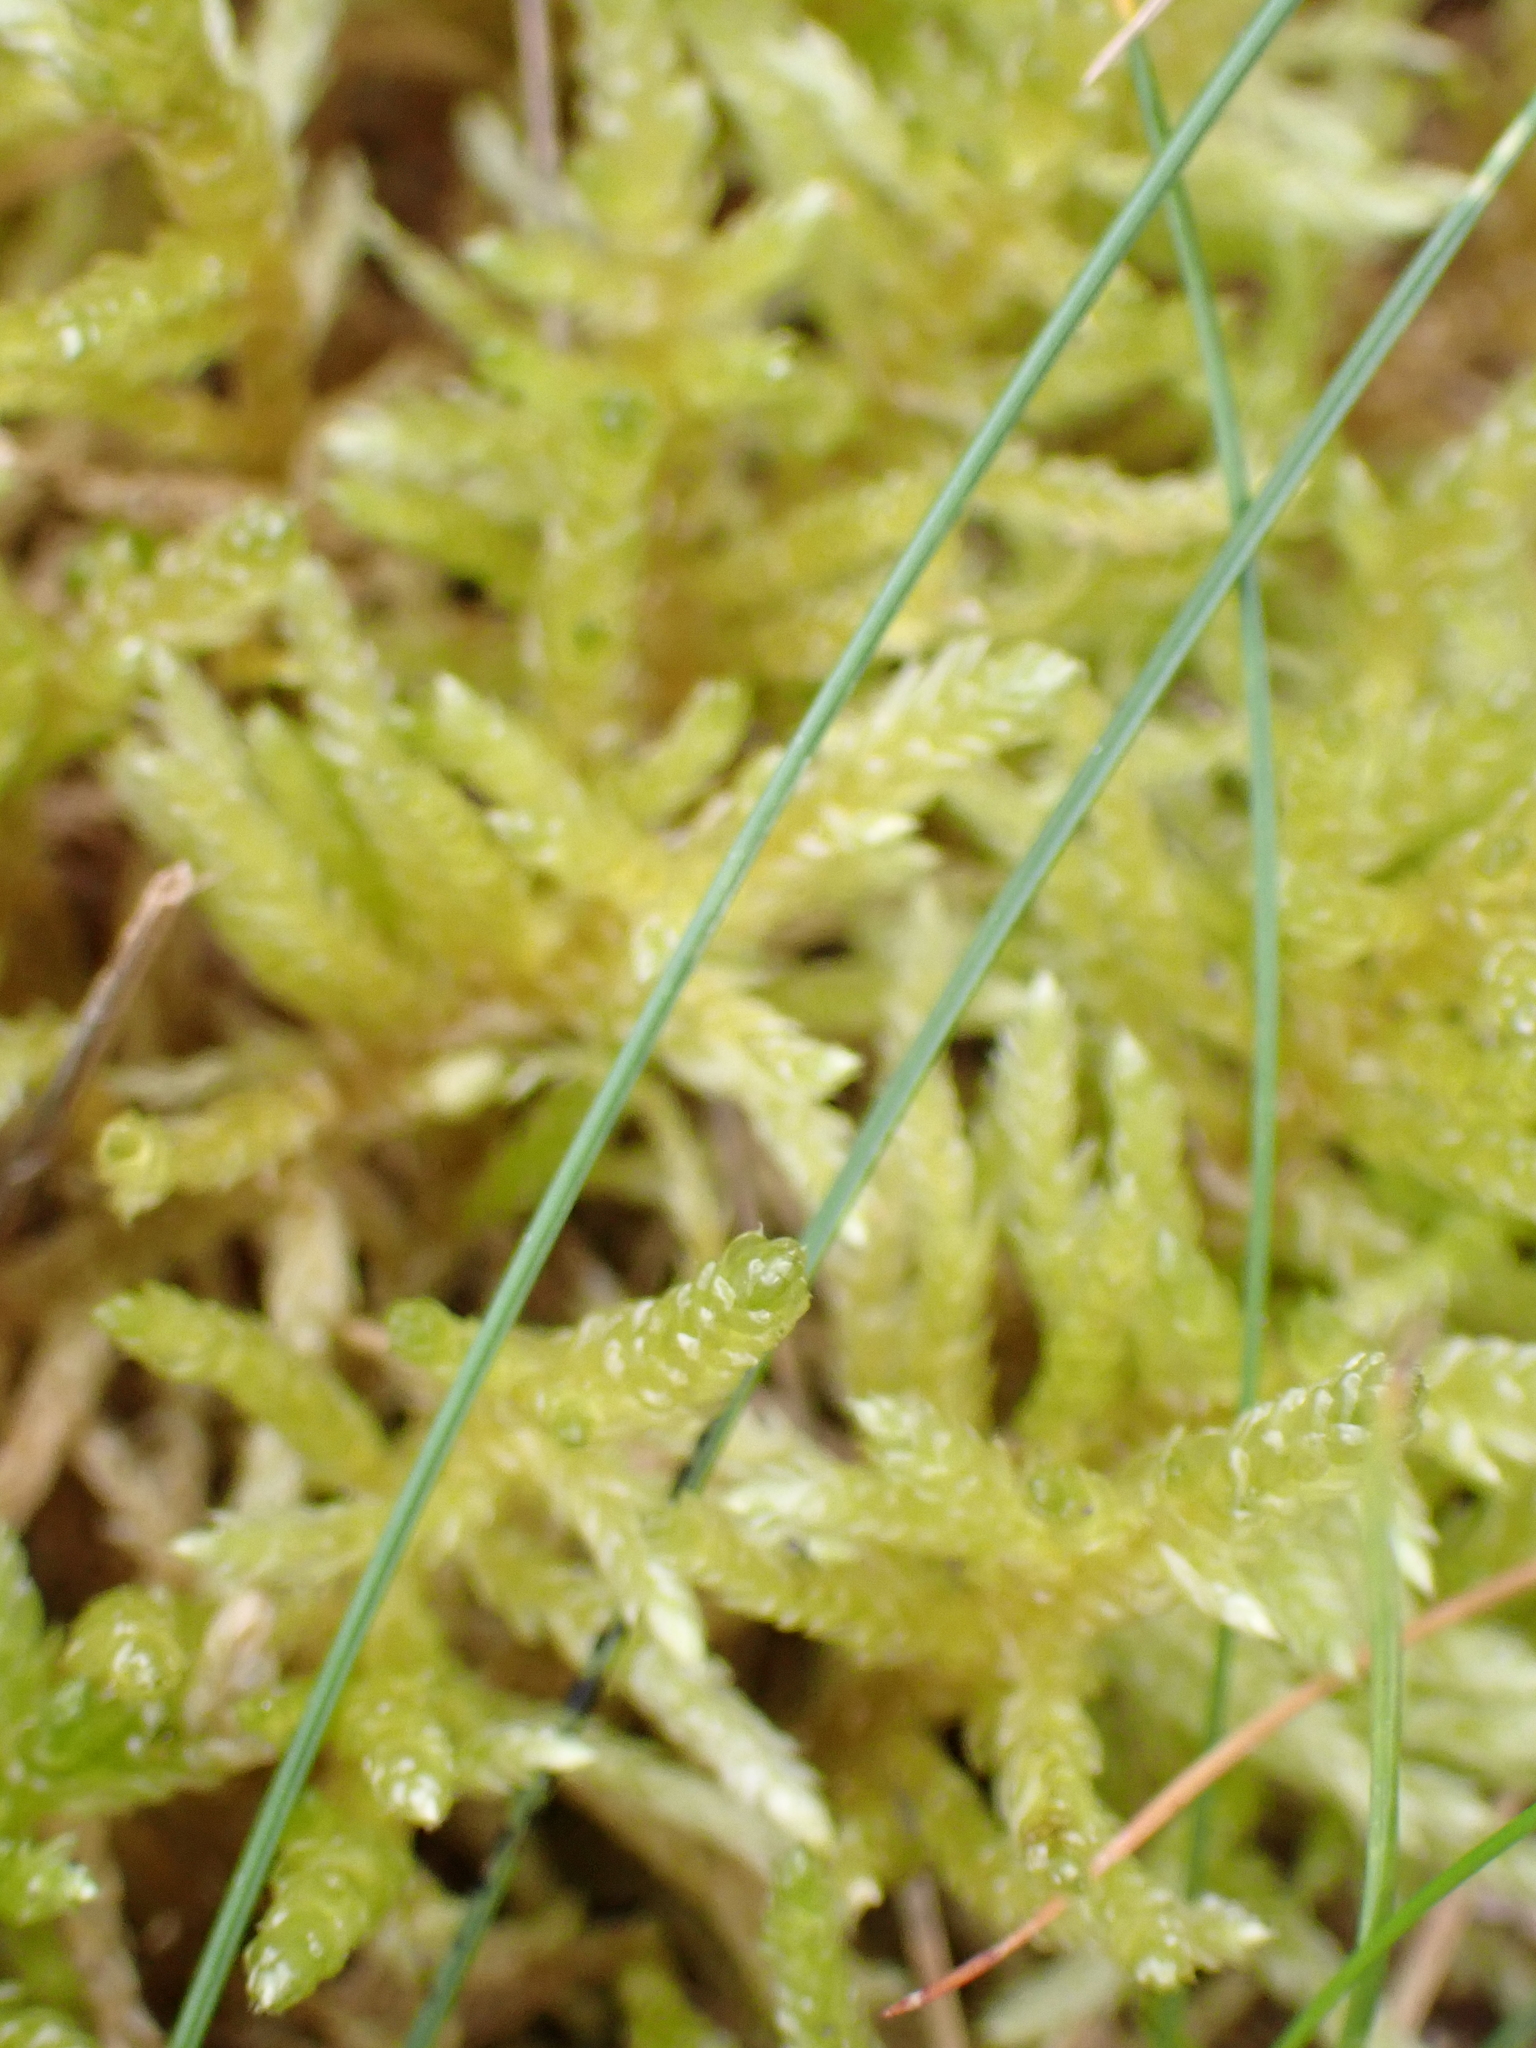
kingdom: Plantae
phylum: Bryophyta
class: Bryopsida
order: Hypnales
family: Brachytheciaceae
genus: Pseudoscleropodium
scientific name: Pseudoscleropodium purum
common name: Neat feather-moss
